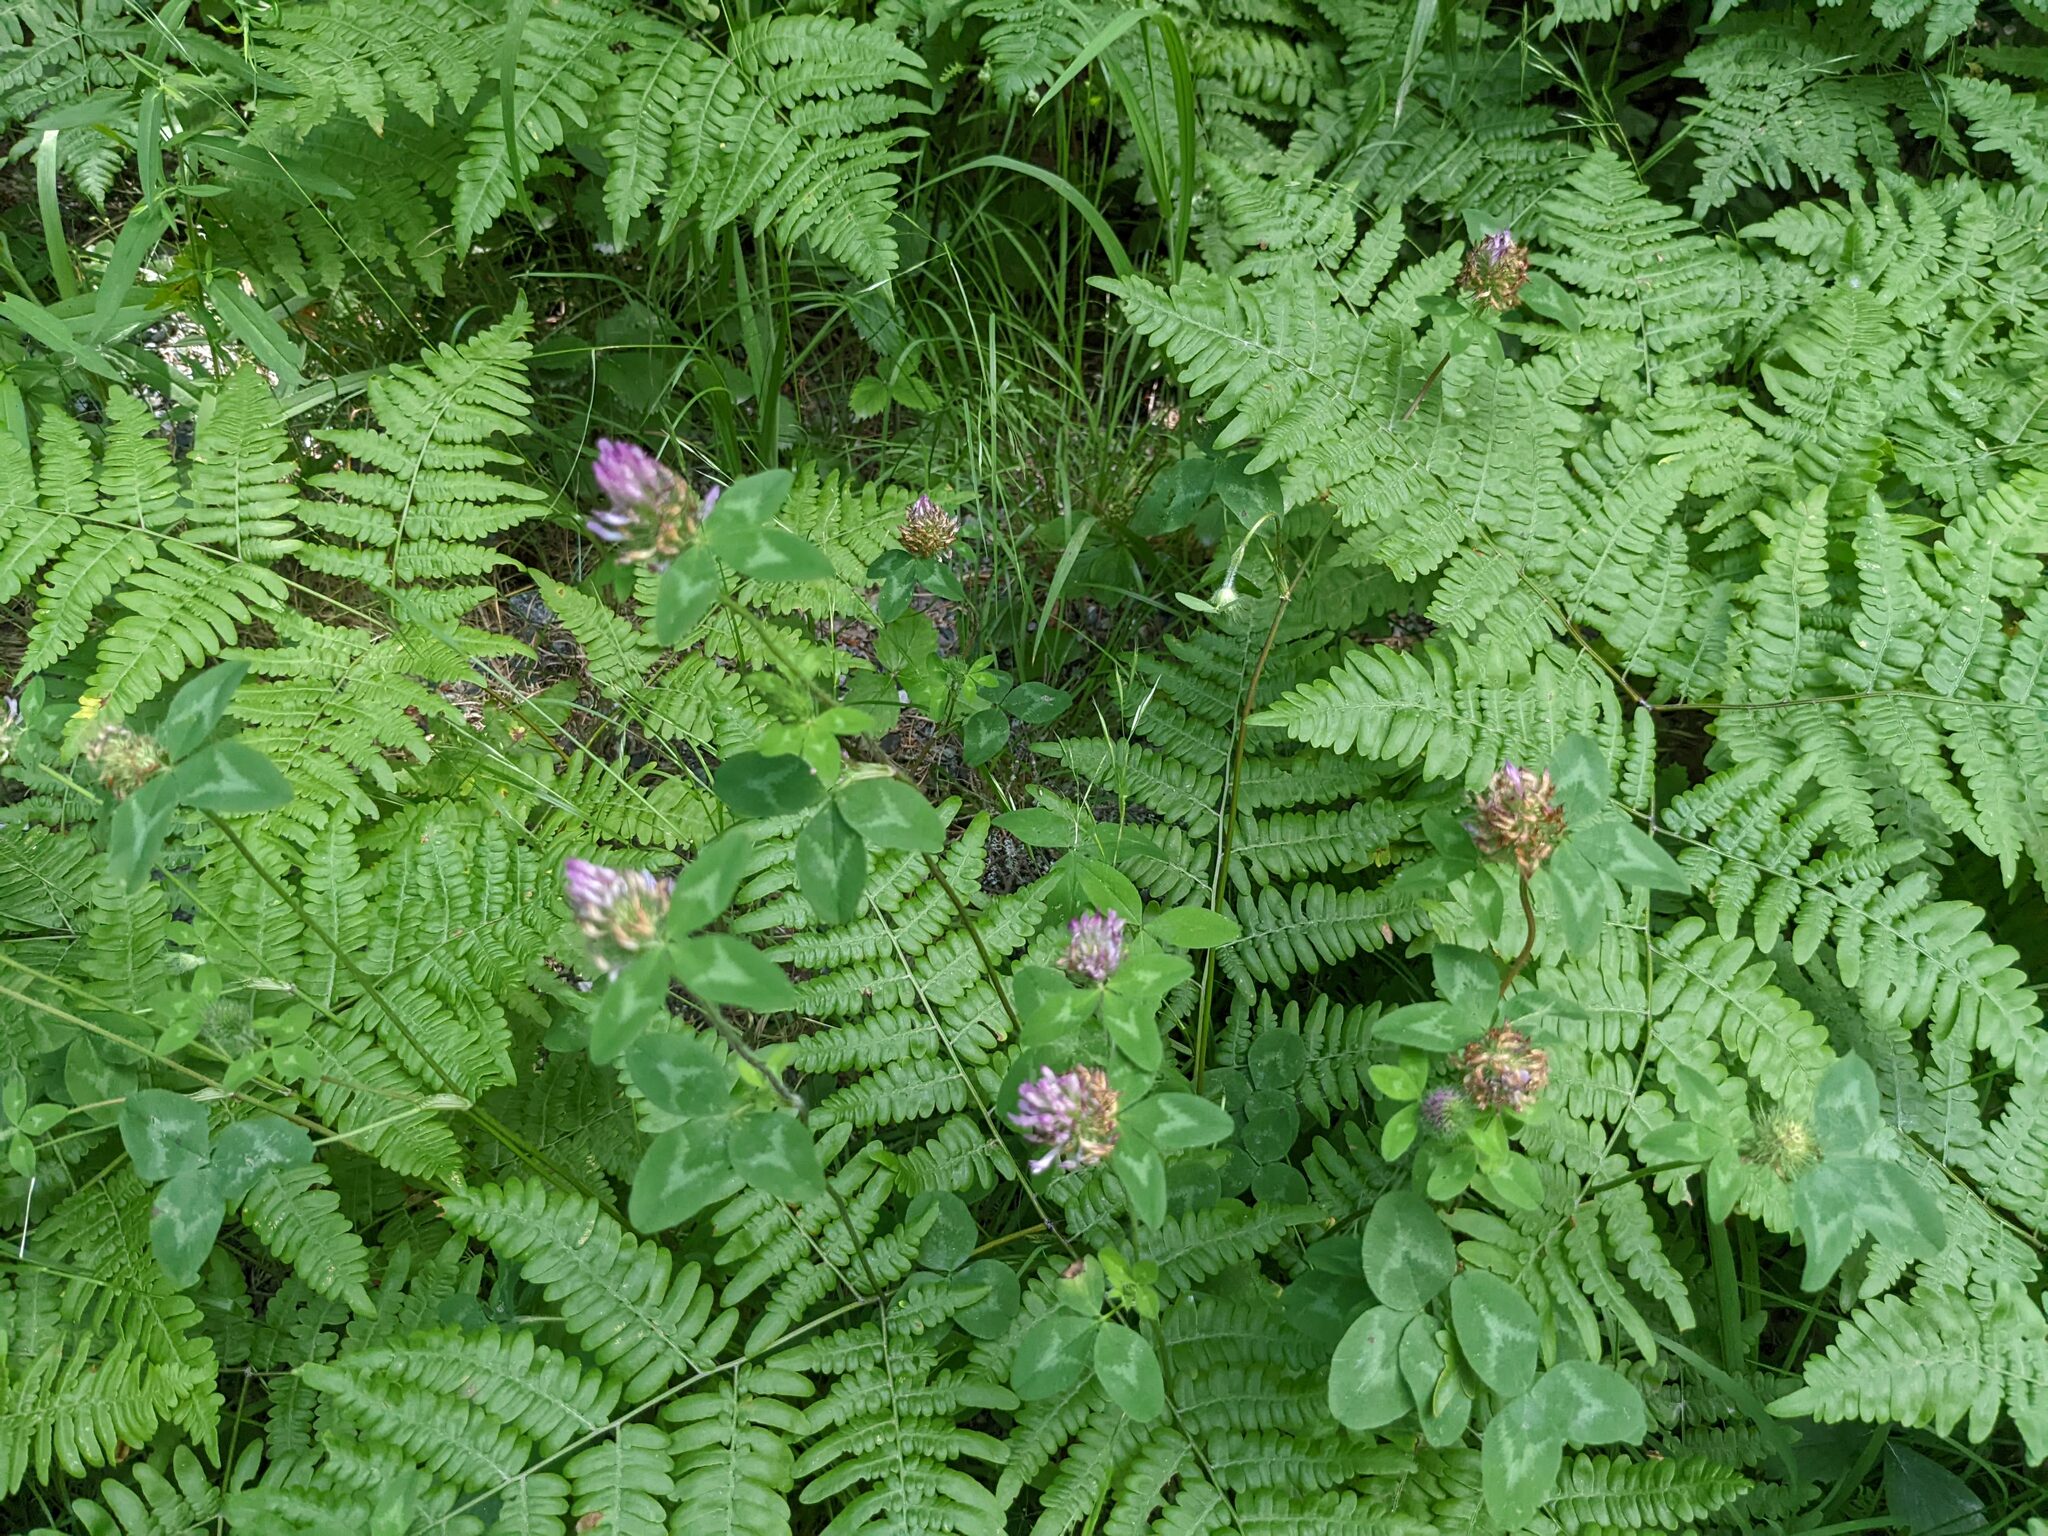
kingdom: Plantae
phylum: Tracheophyta
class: Magnoliopsida
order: Fabales
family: Fabaceae
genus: Trifolium
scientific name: Trifolium pratense
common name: Red clover
